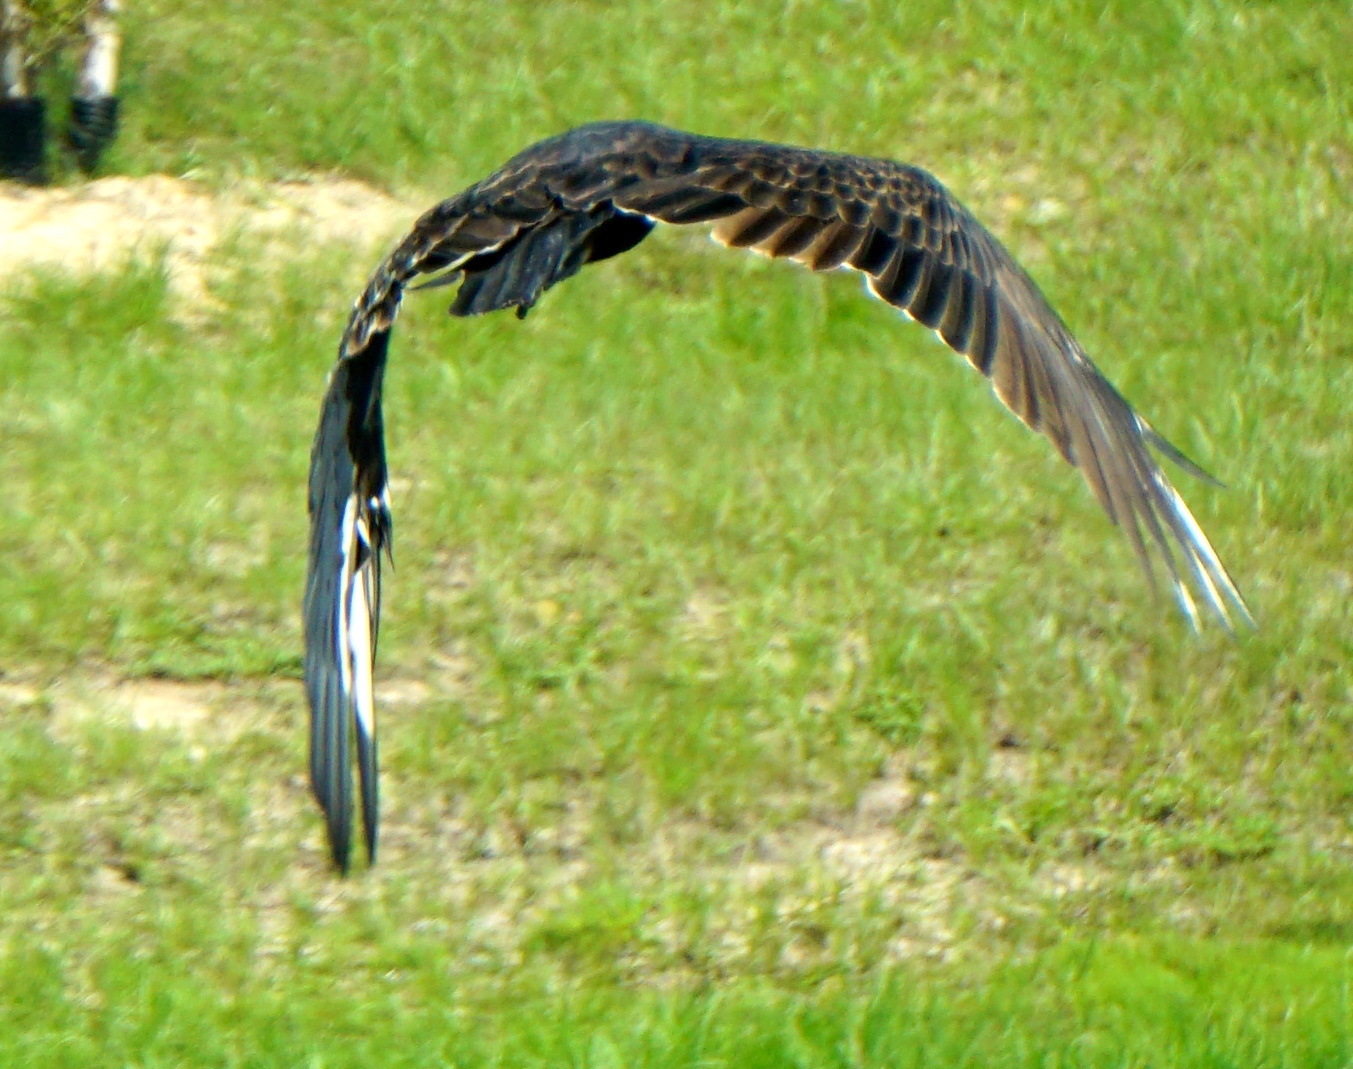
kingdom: Animalia
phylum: Chordata
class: Aves
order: Accipitriformes
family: Cathartidae
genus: Cathartes
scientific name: Cathartes aura
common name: Turkey vulture
